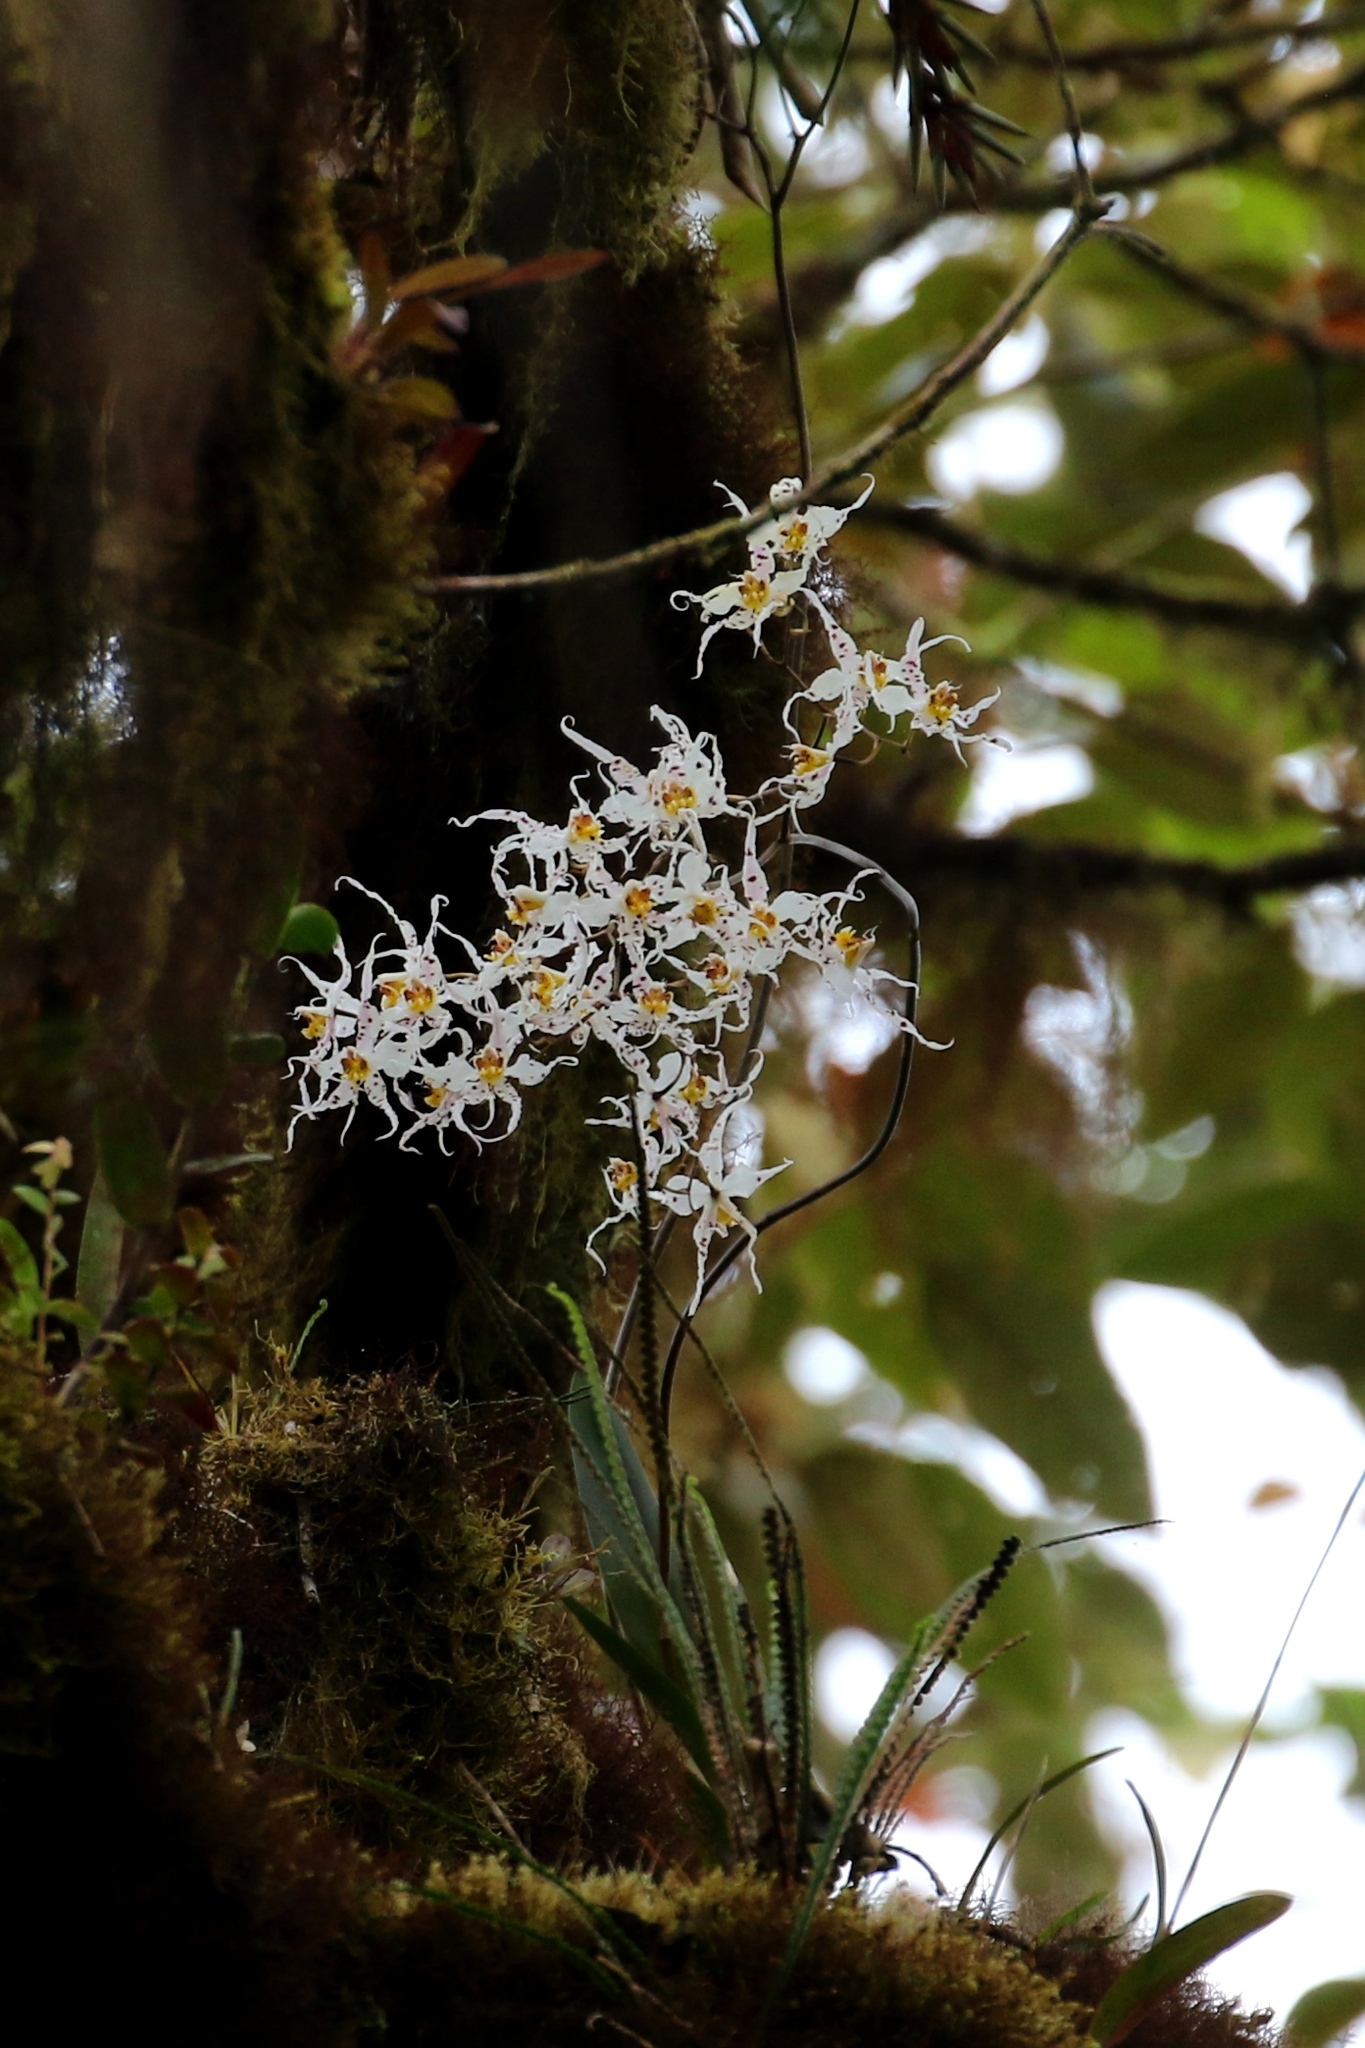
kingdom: Plantae
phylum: Tracheophyta
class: Liliopsida
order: Asparagales
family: Orchidaceae
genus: Oncidium
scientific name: Oncidium cirrhosum
